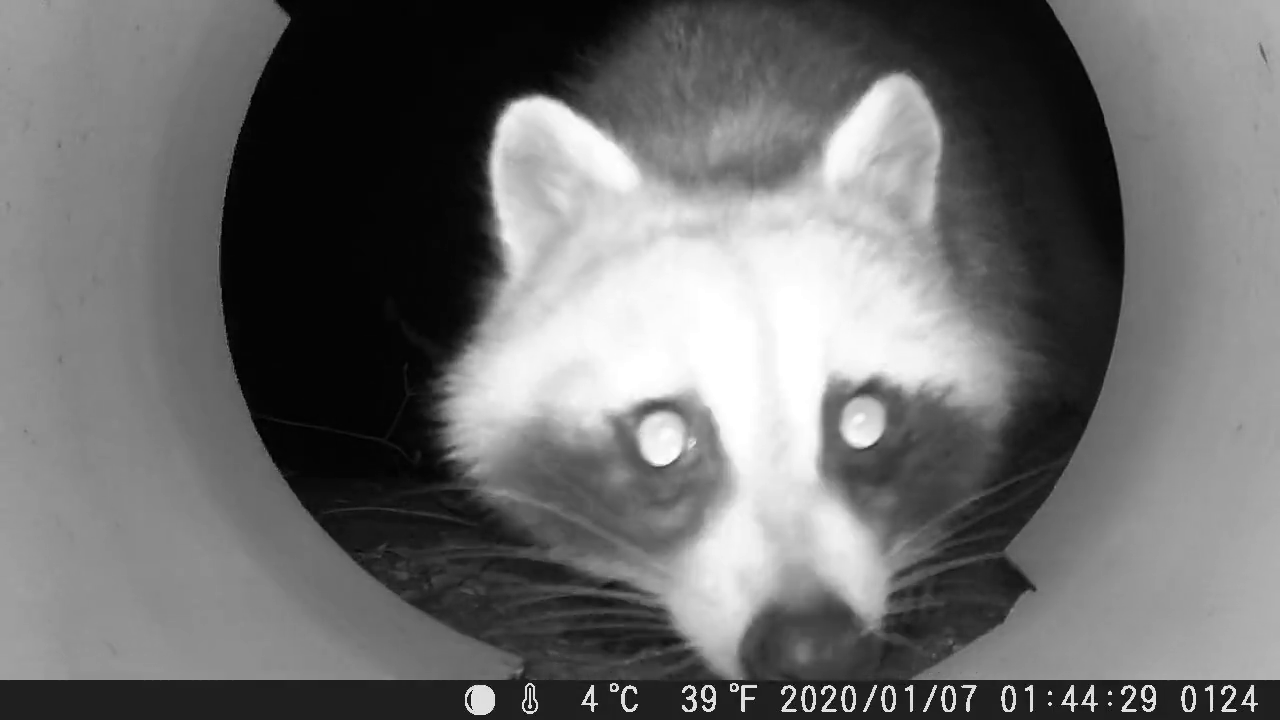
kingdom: Animalia
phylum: Chordata
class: Mammalia
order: Carnivora
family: Procyonidae
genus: Procyon
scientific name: Procyon lotor
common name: Raccoon
